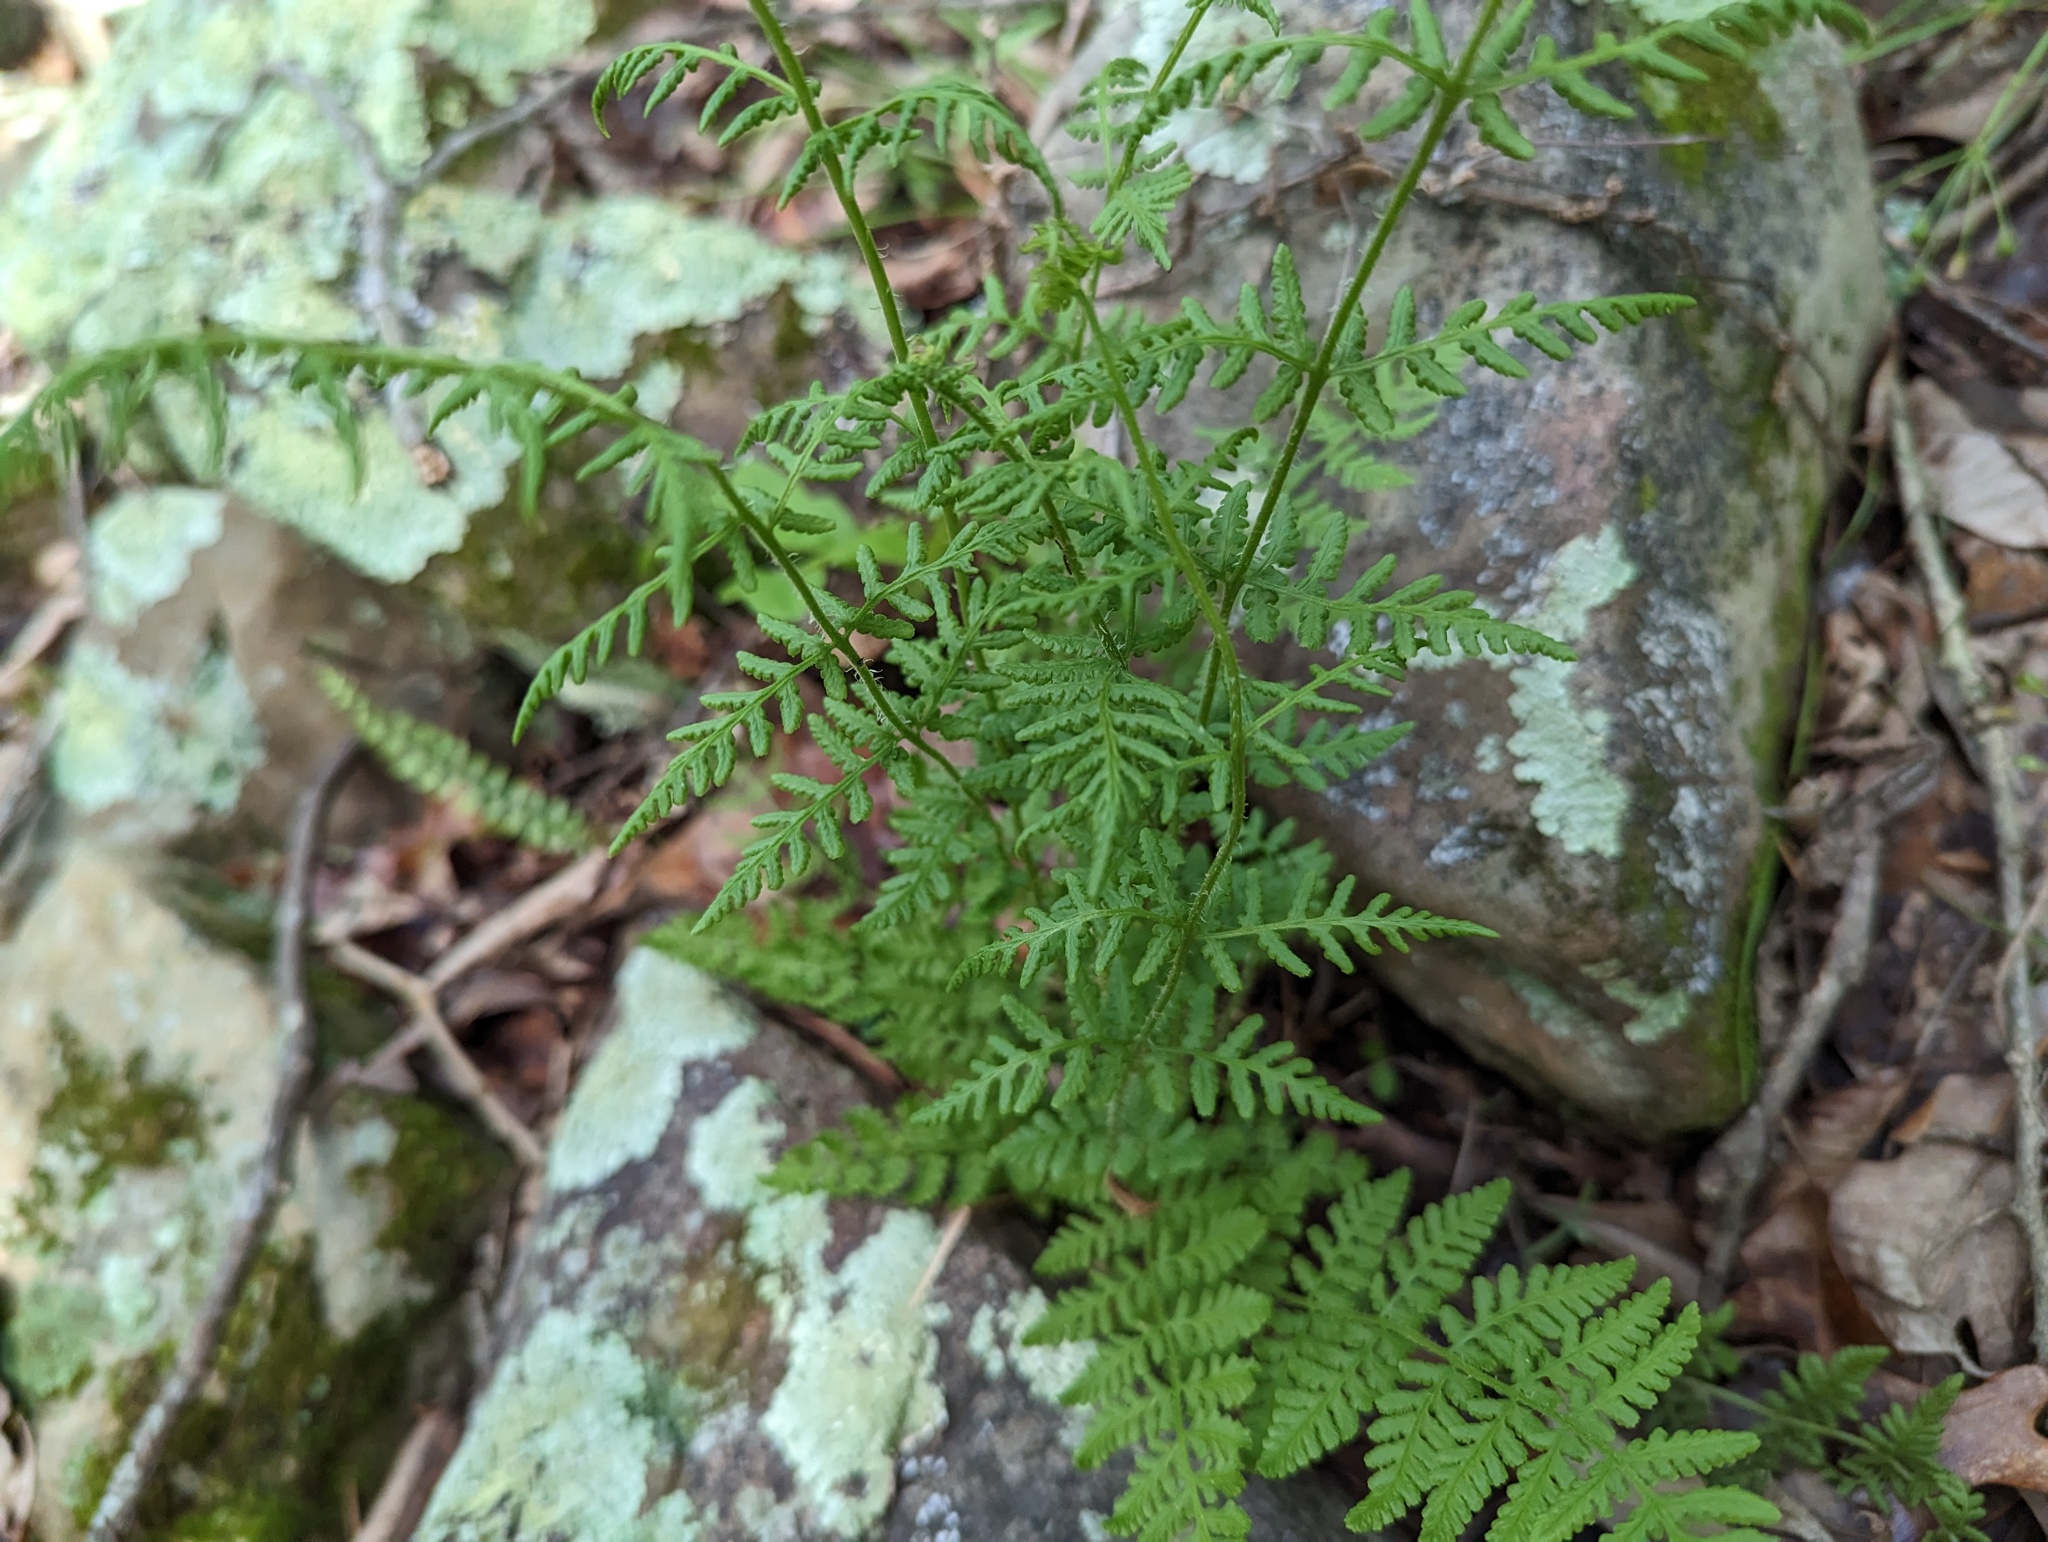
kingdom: Plantae
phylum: Tracheophyta
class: Polypodiopsida
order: Polypodiales
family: Woodsiaceae
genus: Physematium
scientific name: Physematium obtusum
